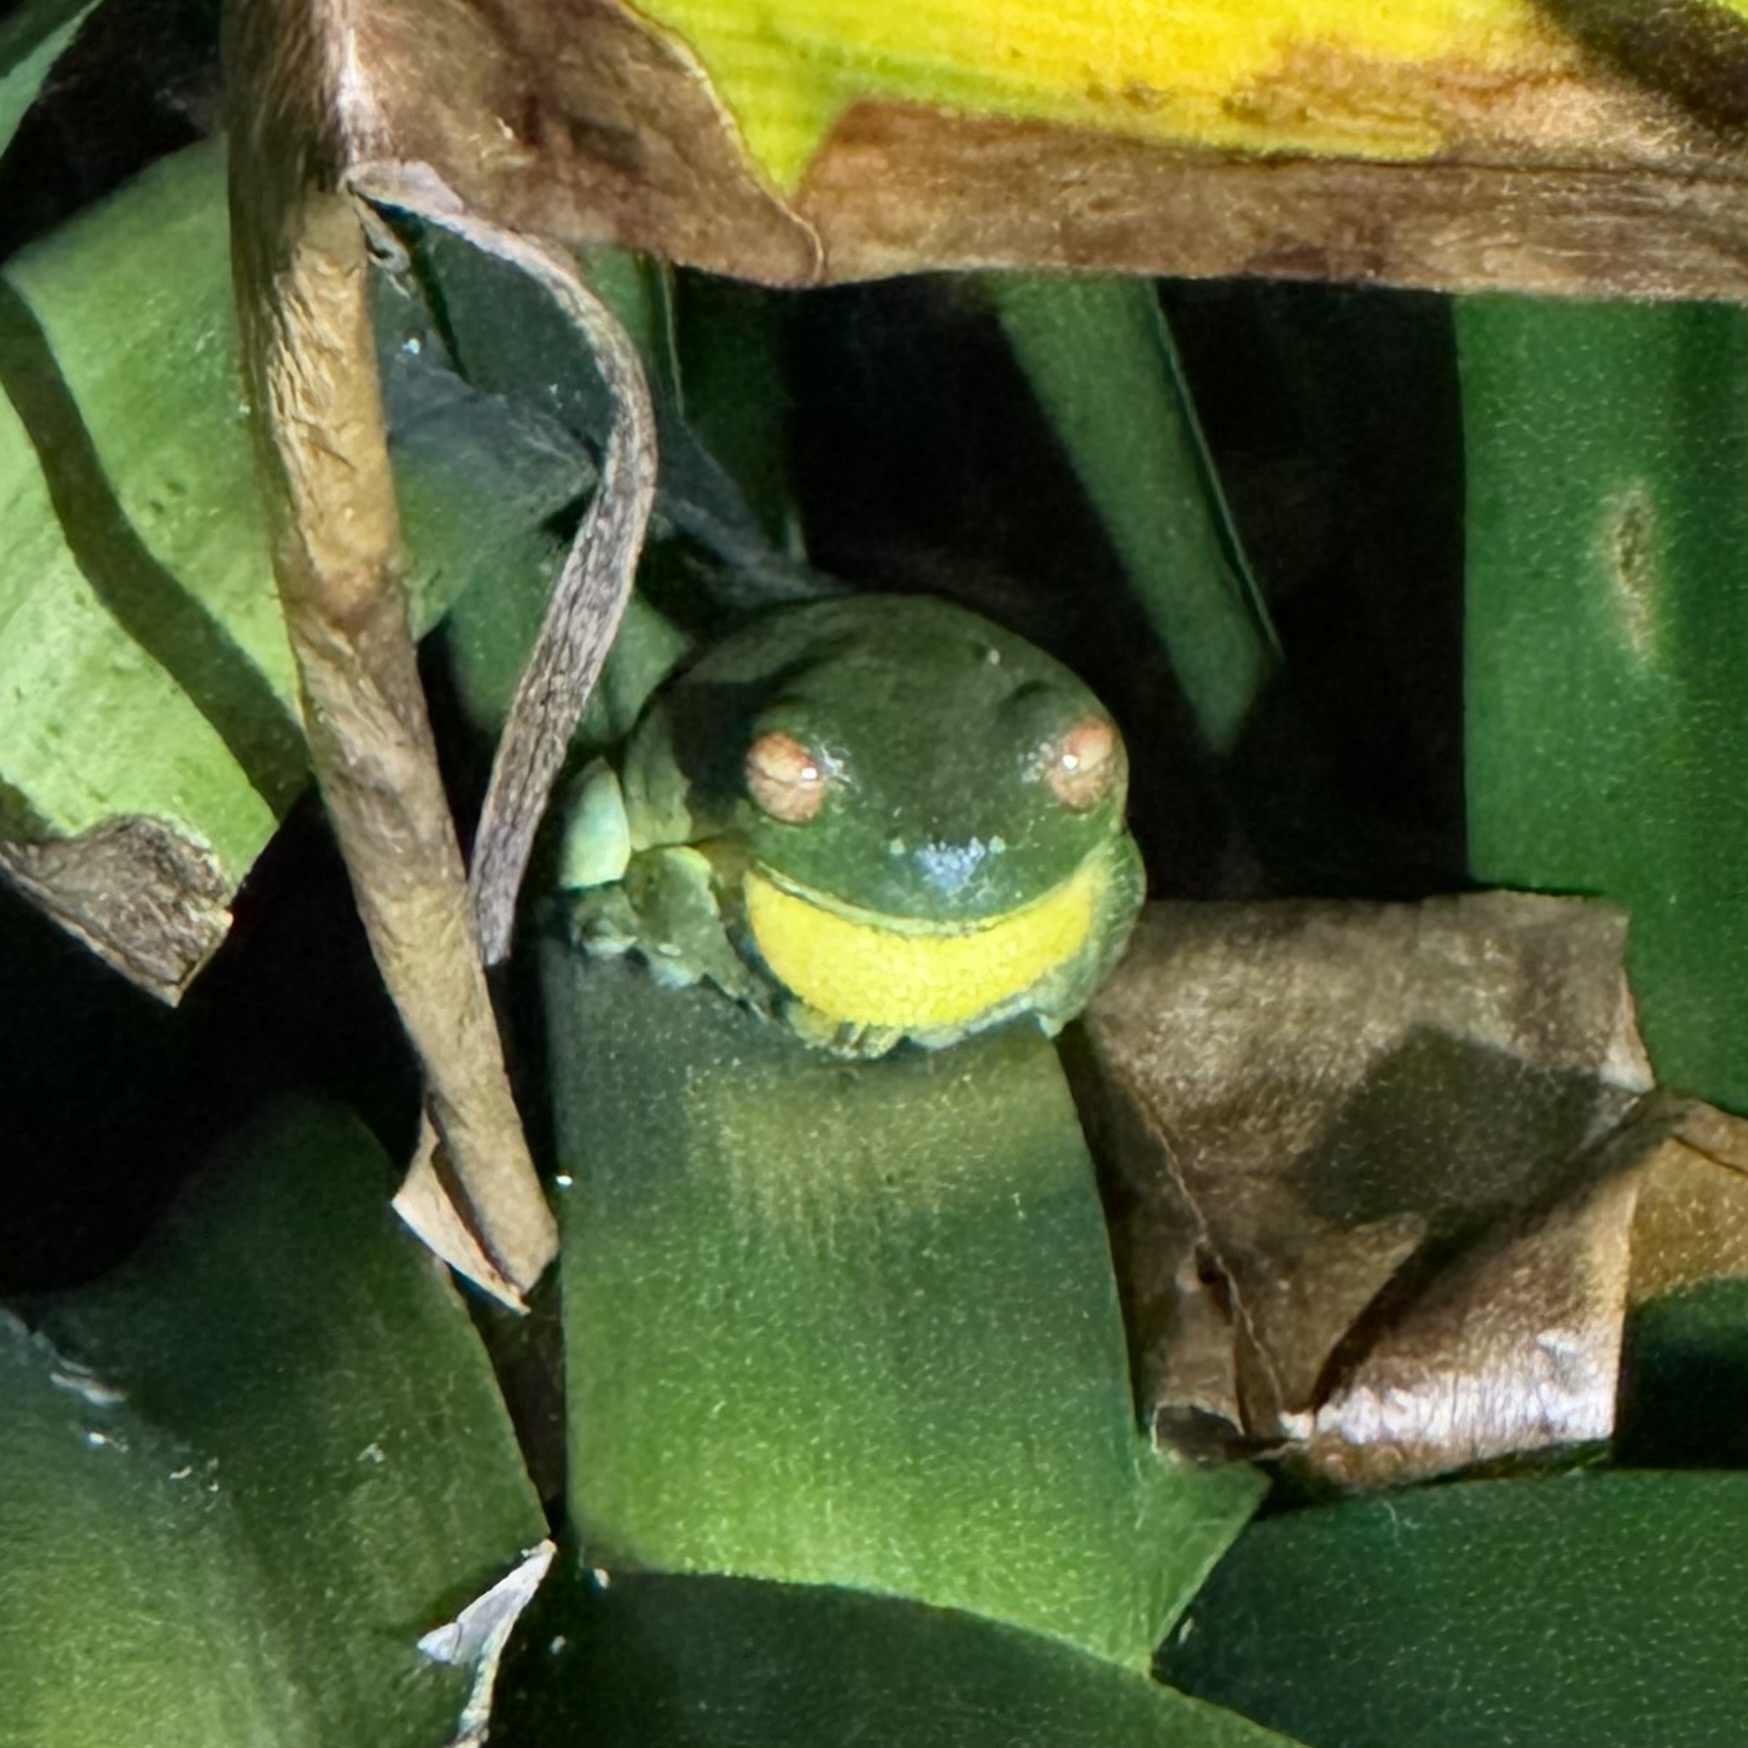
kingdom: Animalia
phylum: Chordata
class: Amphibia
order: Anura
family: Pelodryadidae
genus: Ranoidea
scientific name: Ranoidea chloris
